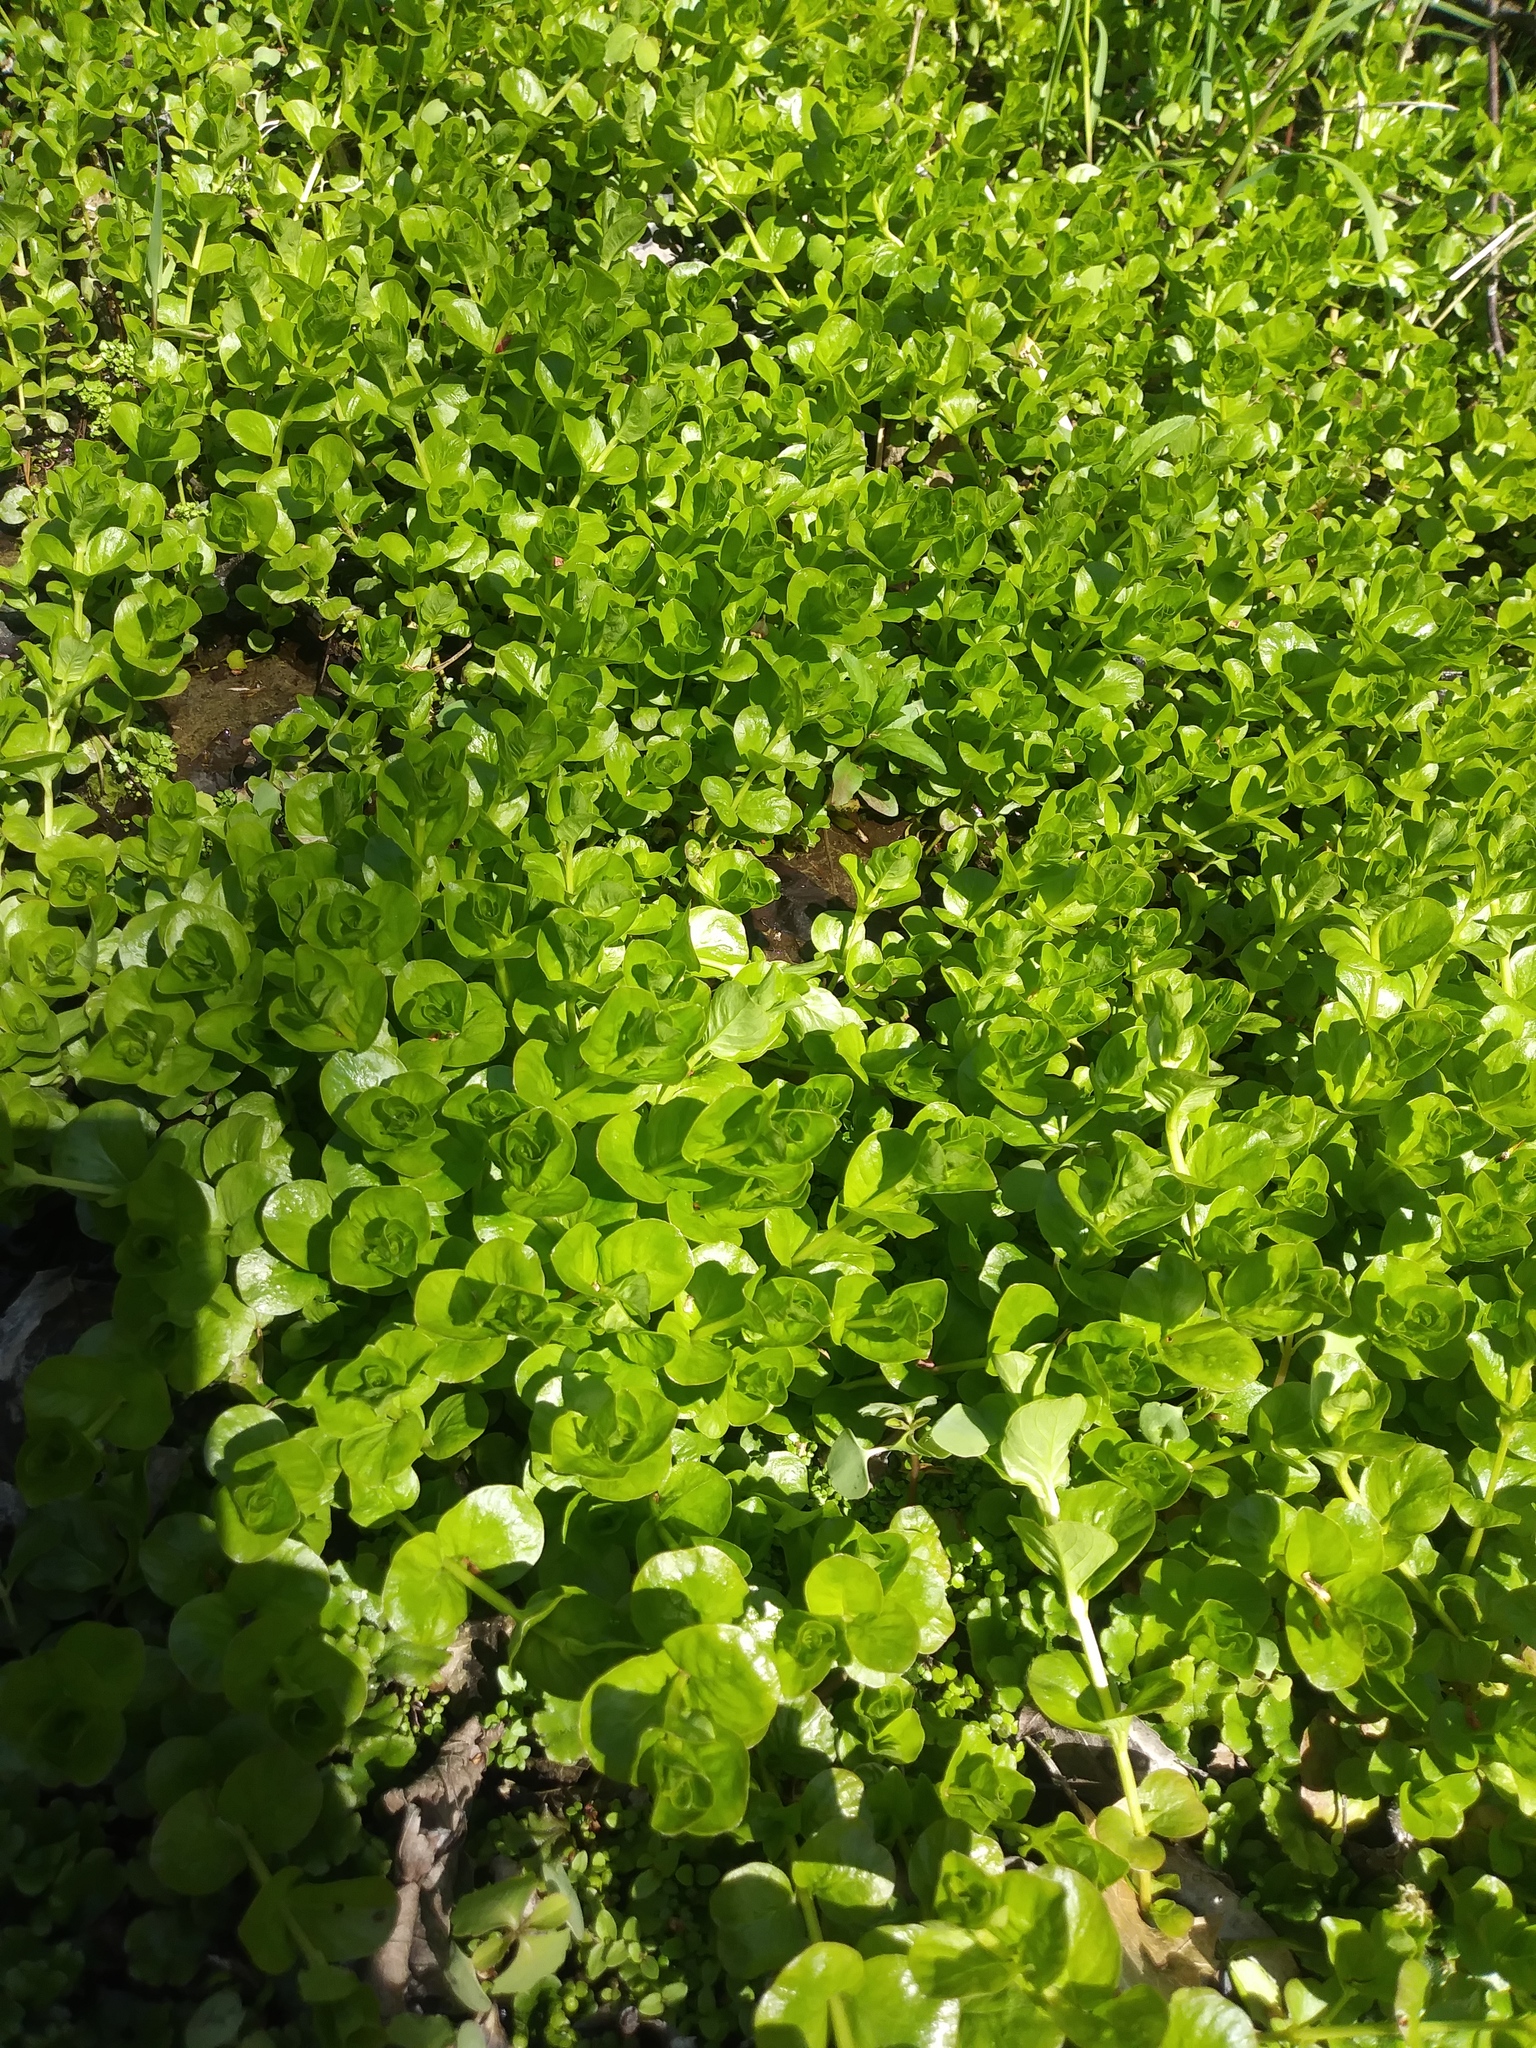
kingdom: Plantae
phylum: Tracheophyta
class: Magnoliopsida
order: Ericales
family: Primulaceae
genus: Lysimachia
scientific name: Lysimachia nummularia
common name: Moneywort
